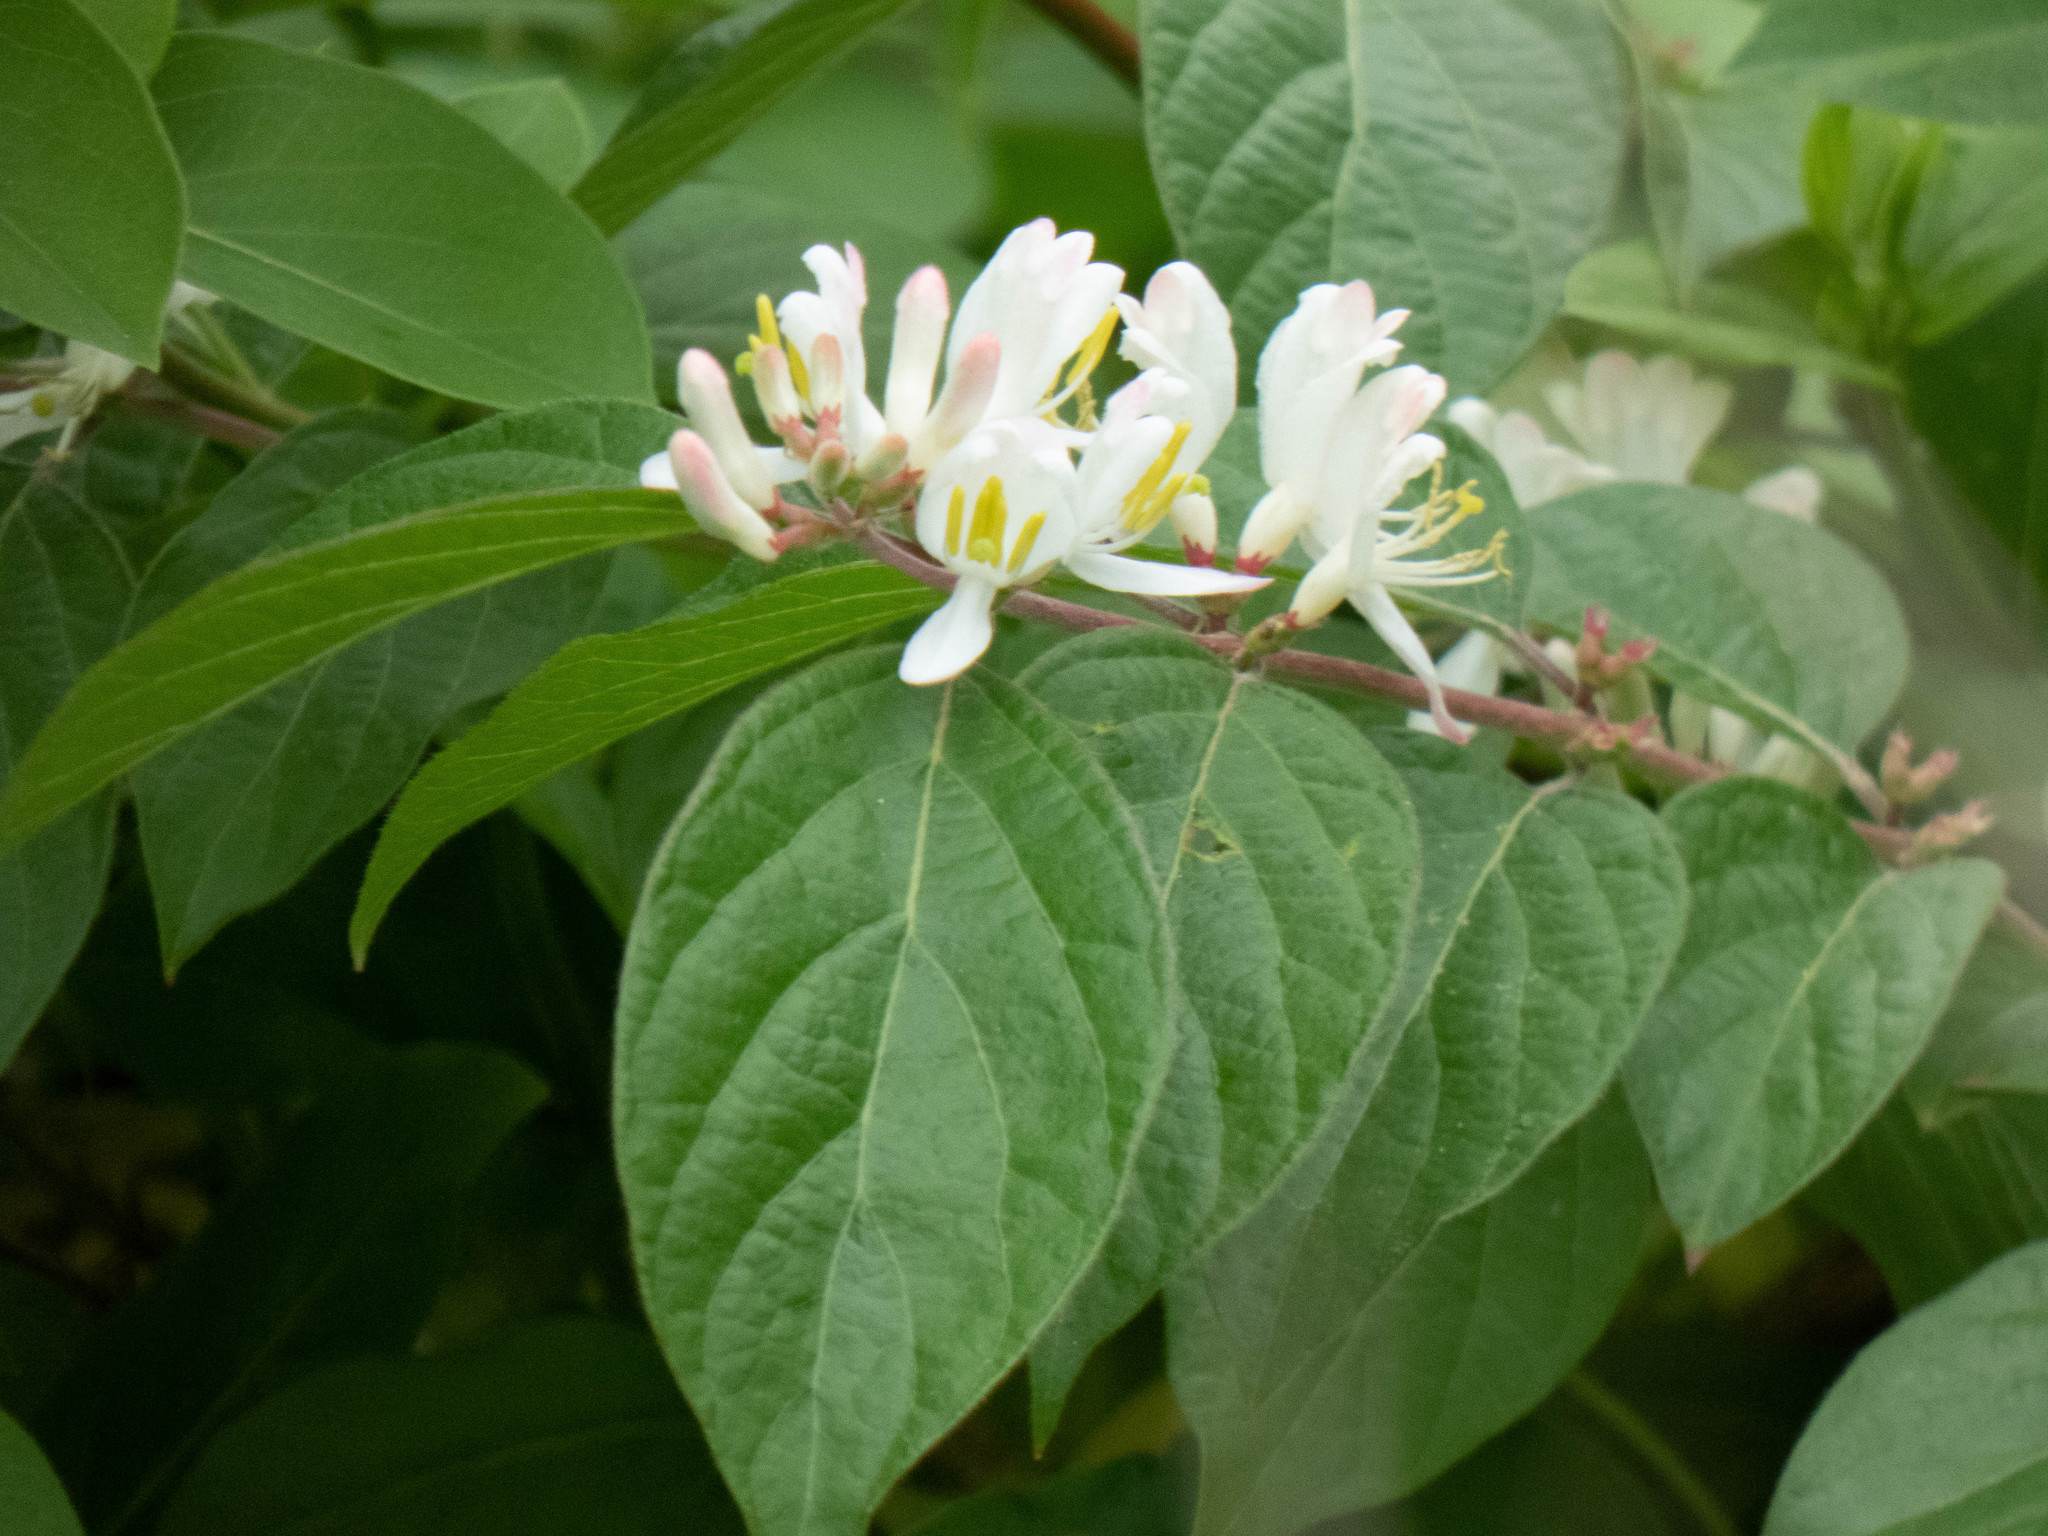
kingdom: Plantae
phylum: Tracheophyta
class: Magnoliopsida
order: Dipsacales
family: Caprifoliaceae
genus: Lonicera
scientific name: Lonicera maackii
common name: Amur honeysuckle
